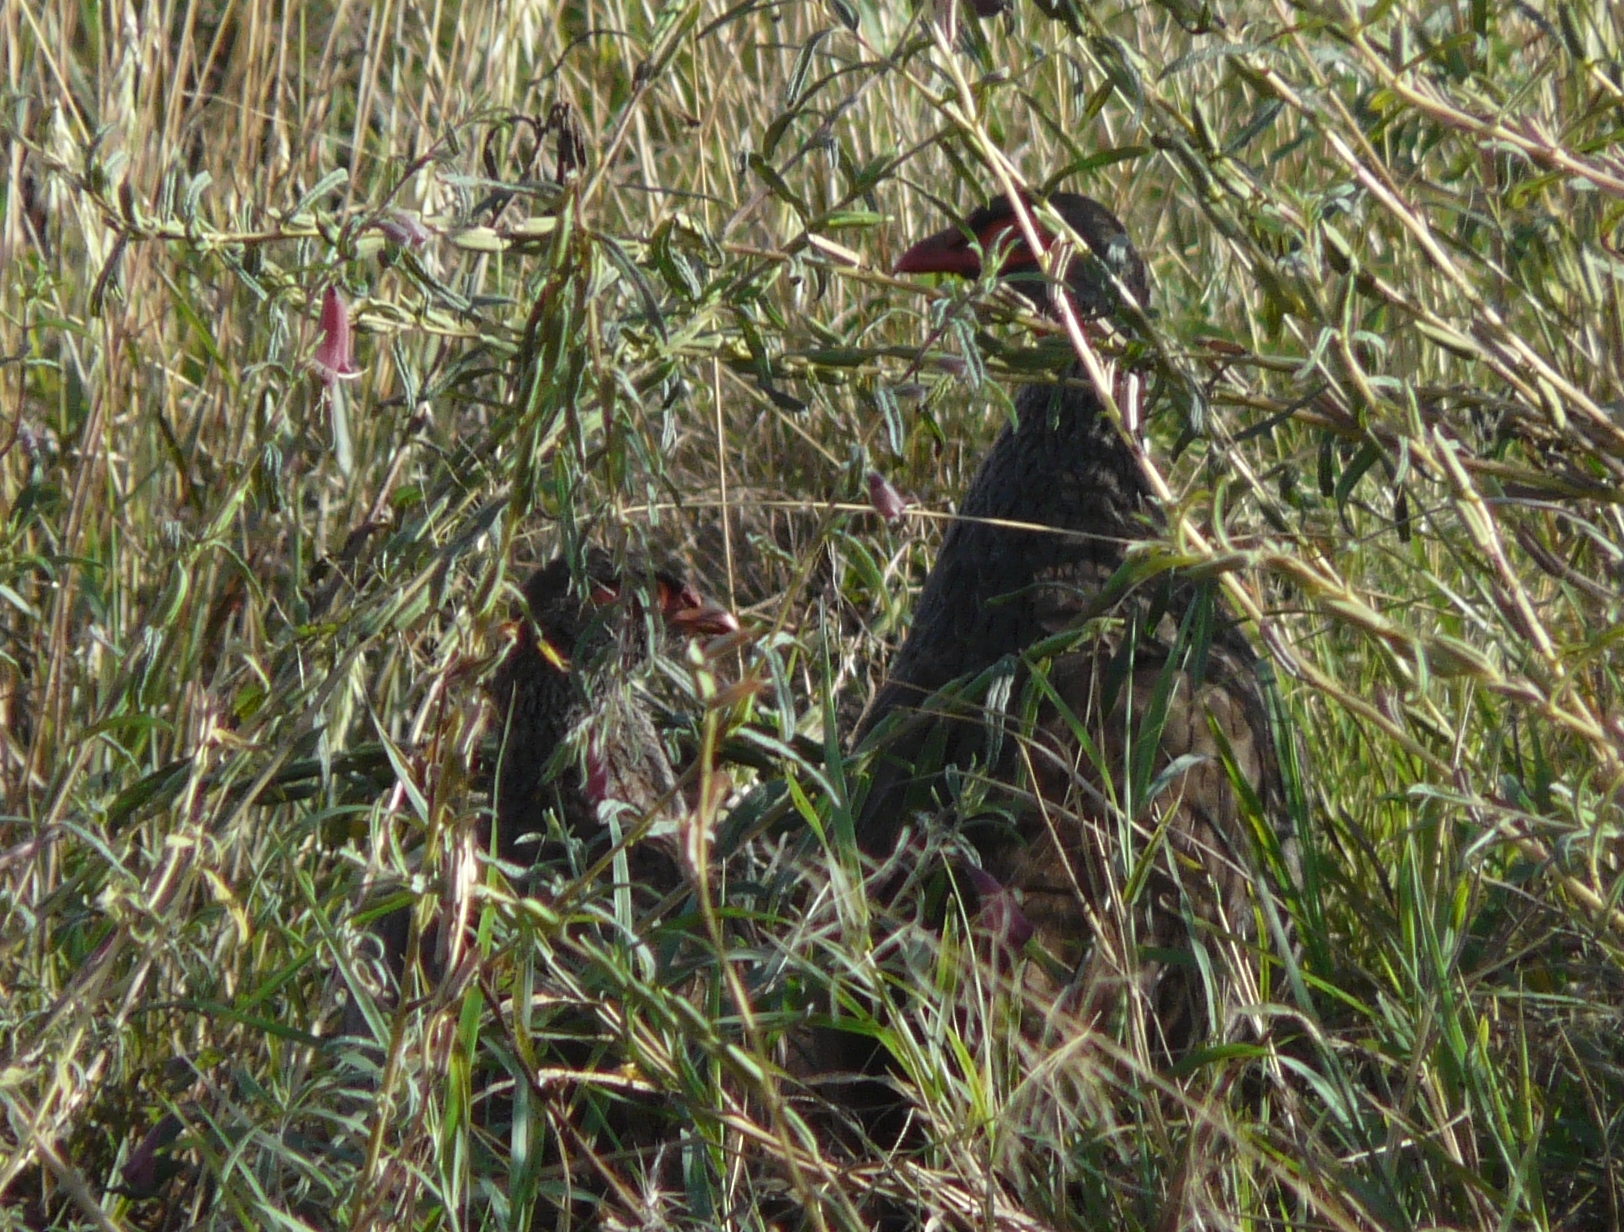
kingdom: Animalia
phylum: Chordata
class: Aves
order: Galliformes
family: Phasianidae
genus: Pternistis
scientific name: Pternistis afer
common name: Red-necked spurfowl
